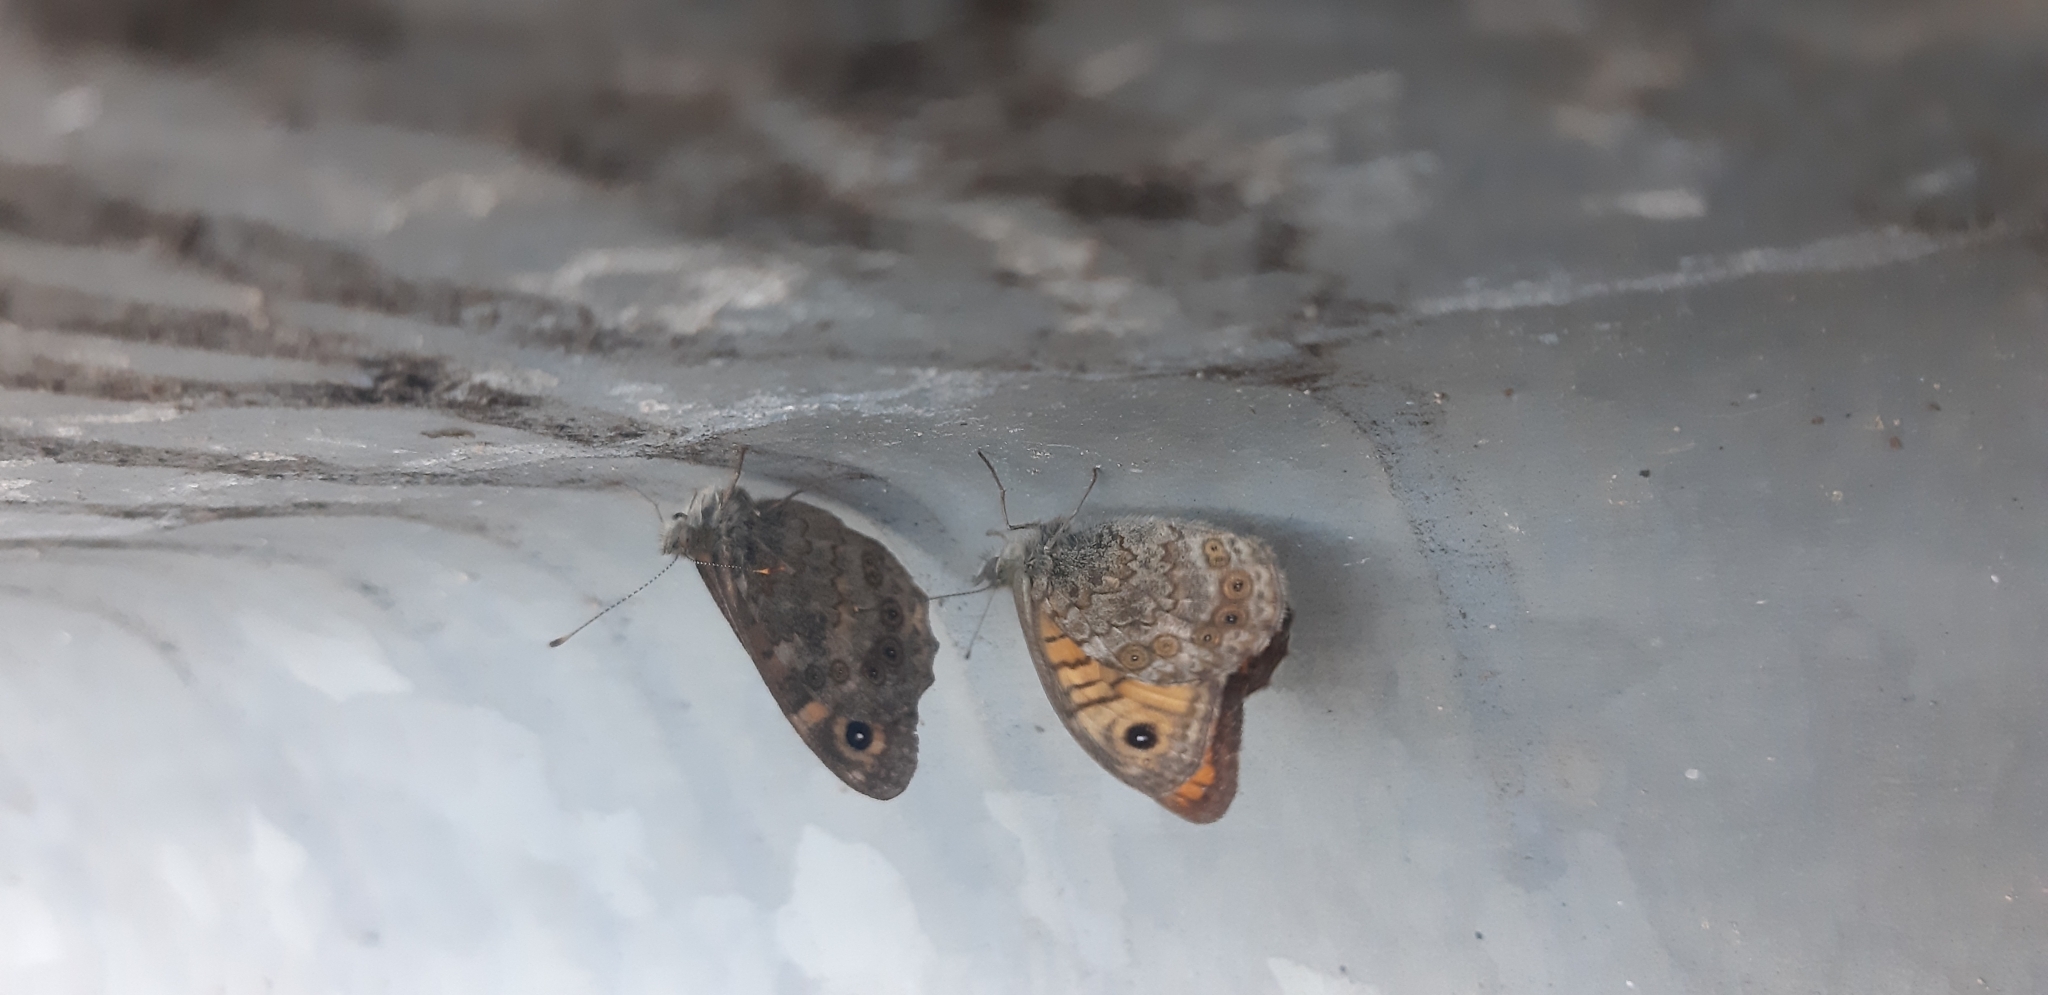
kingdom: Animalia
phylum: Arthropoda
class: Insecta
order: Lepidoptera
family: Nymphalidae
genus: Pararge
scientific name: Pararge Lasiommata megera
